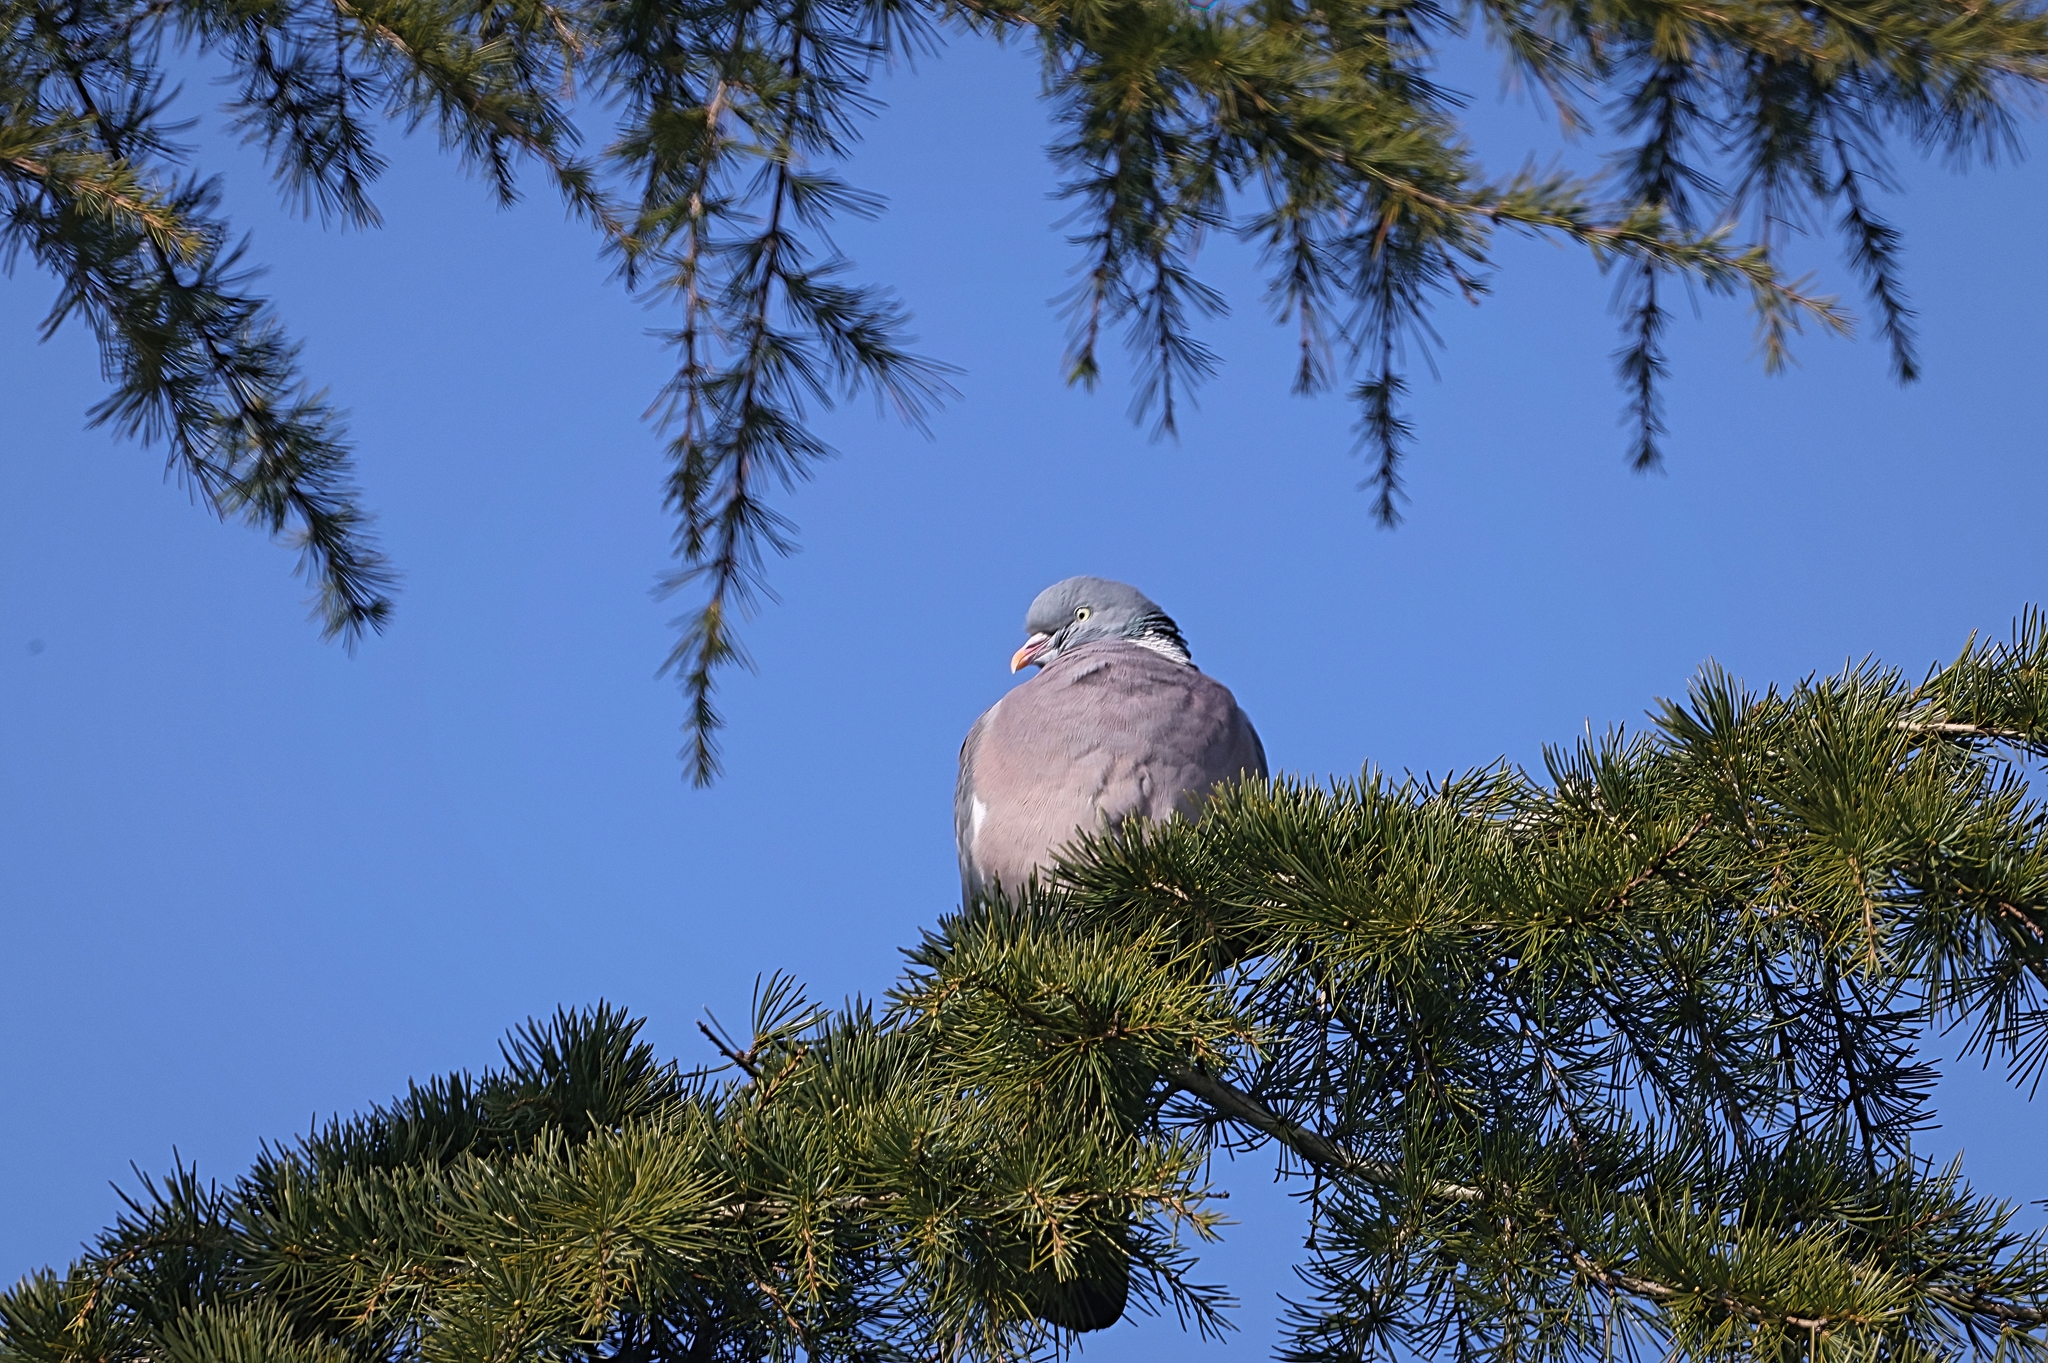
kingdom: Animalia
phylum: Chordata
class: Aves
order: Columbiformes
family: Columbidae
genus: Columba
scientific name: Columba palumbus
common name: Common wood pigeon
